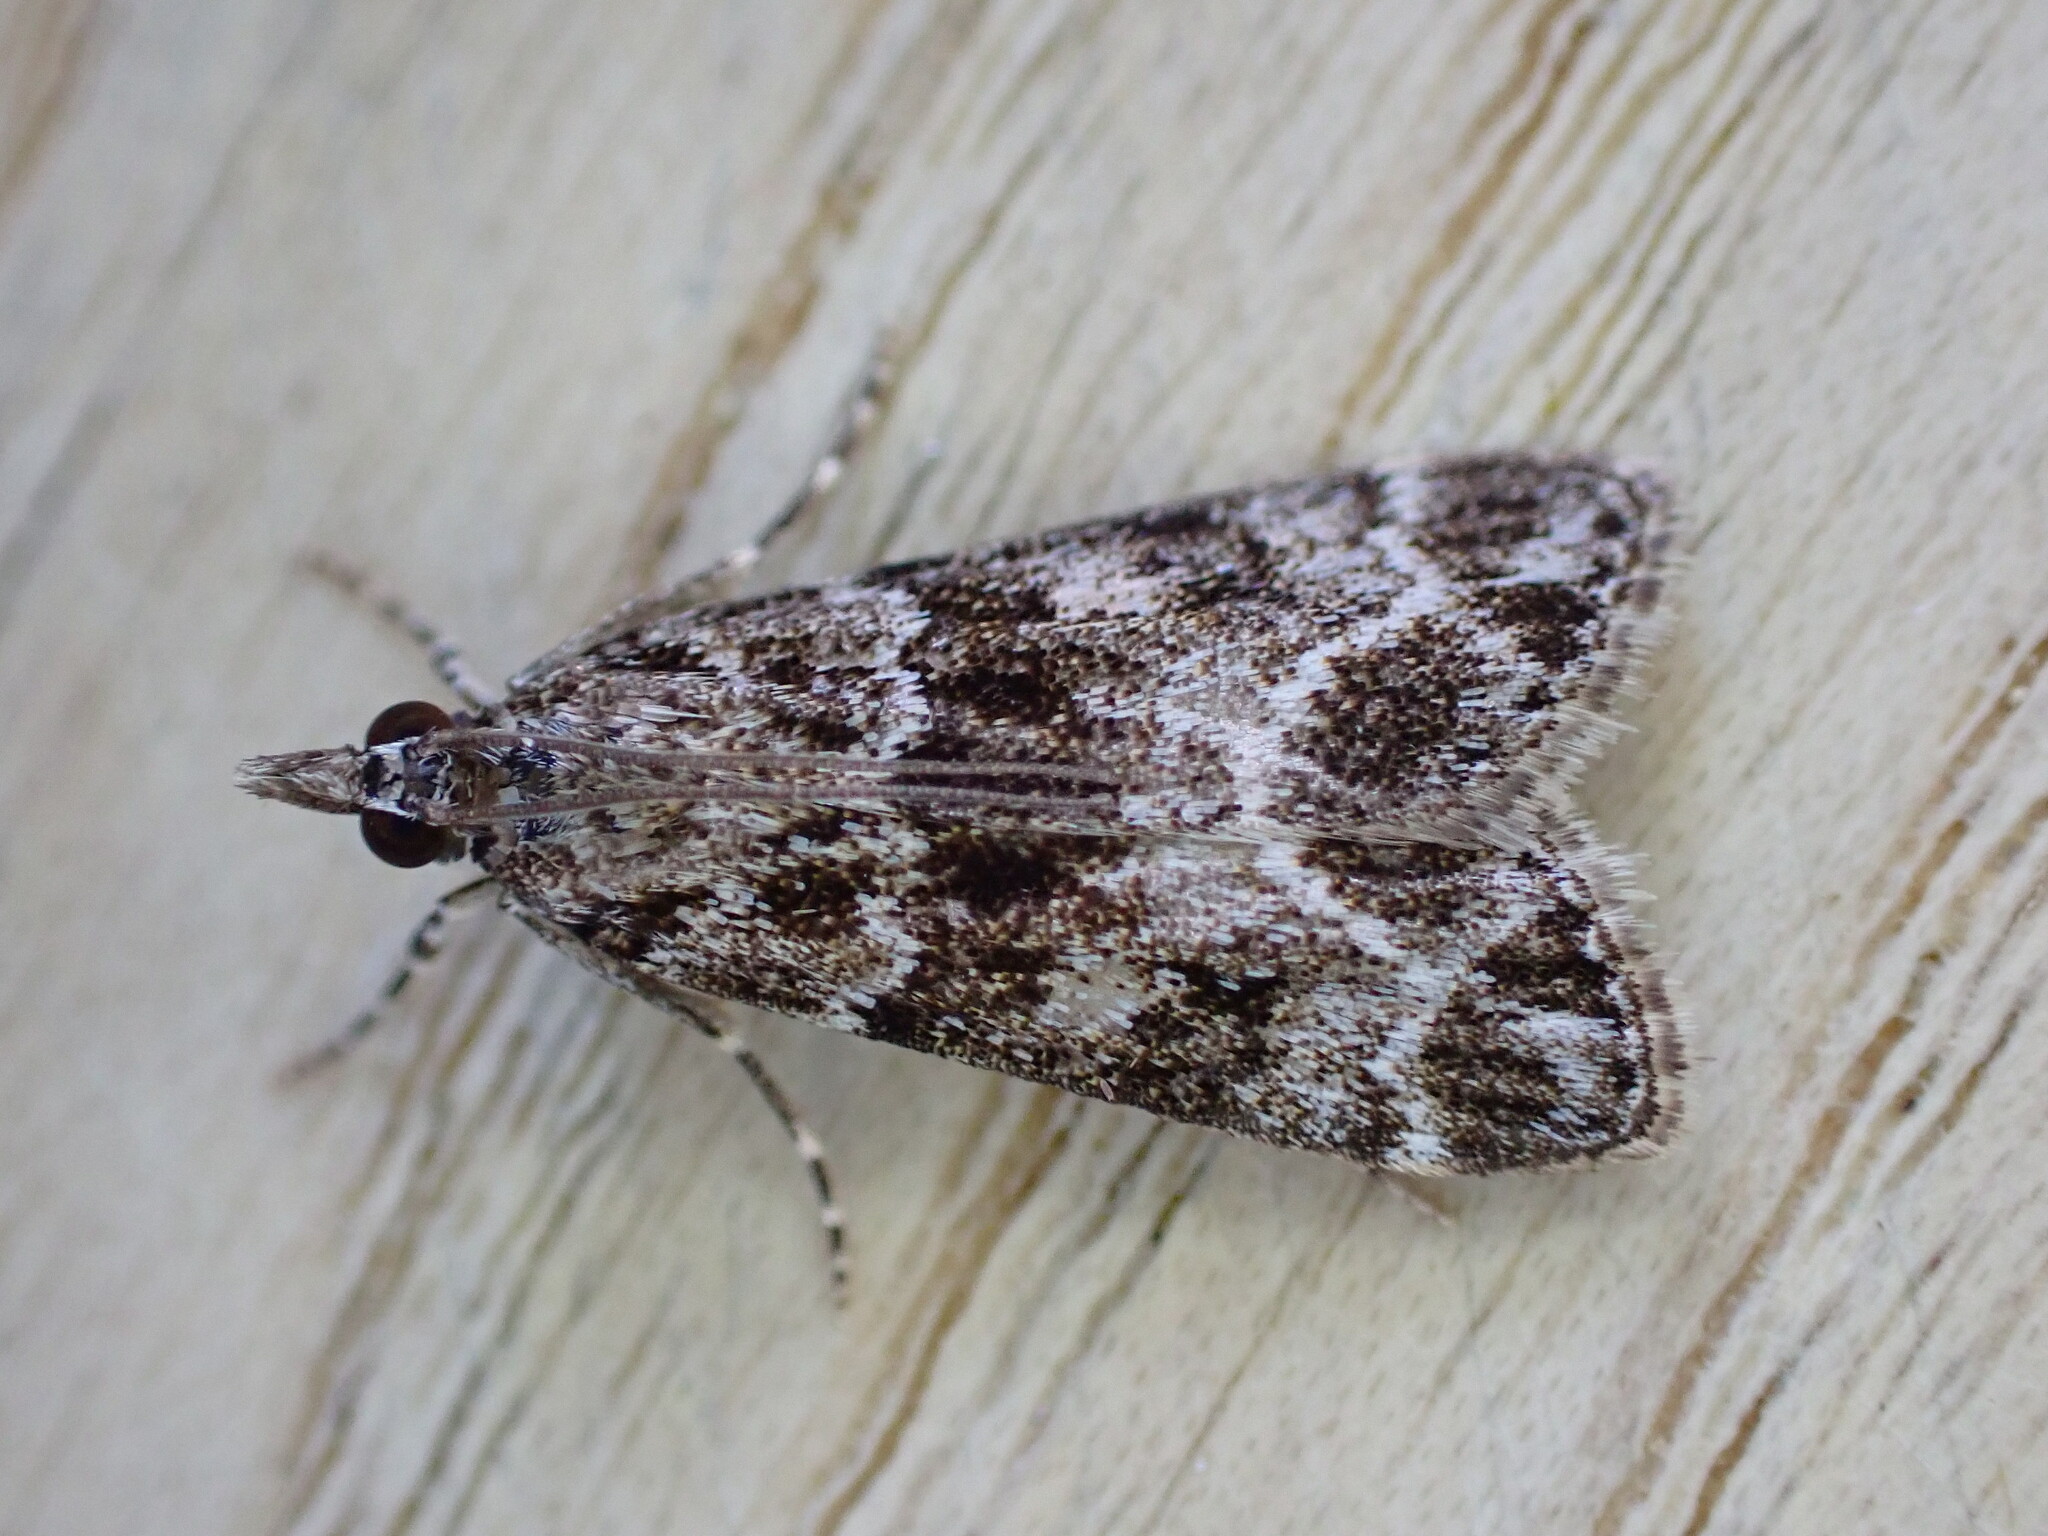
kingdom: Animalia
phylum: Arthropoda
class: Insecta
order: Lepidoptera
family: Crambidae
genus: Eudonia
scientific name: Eudonia mercurella
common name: Small grey
